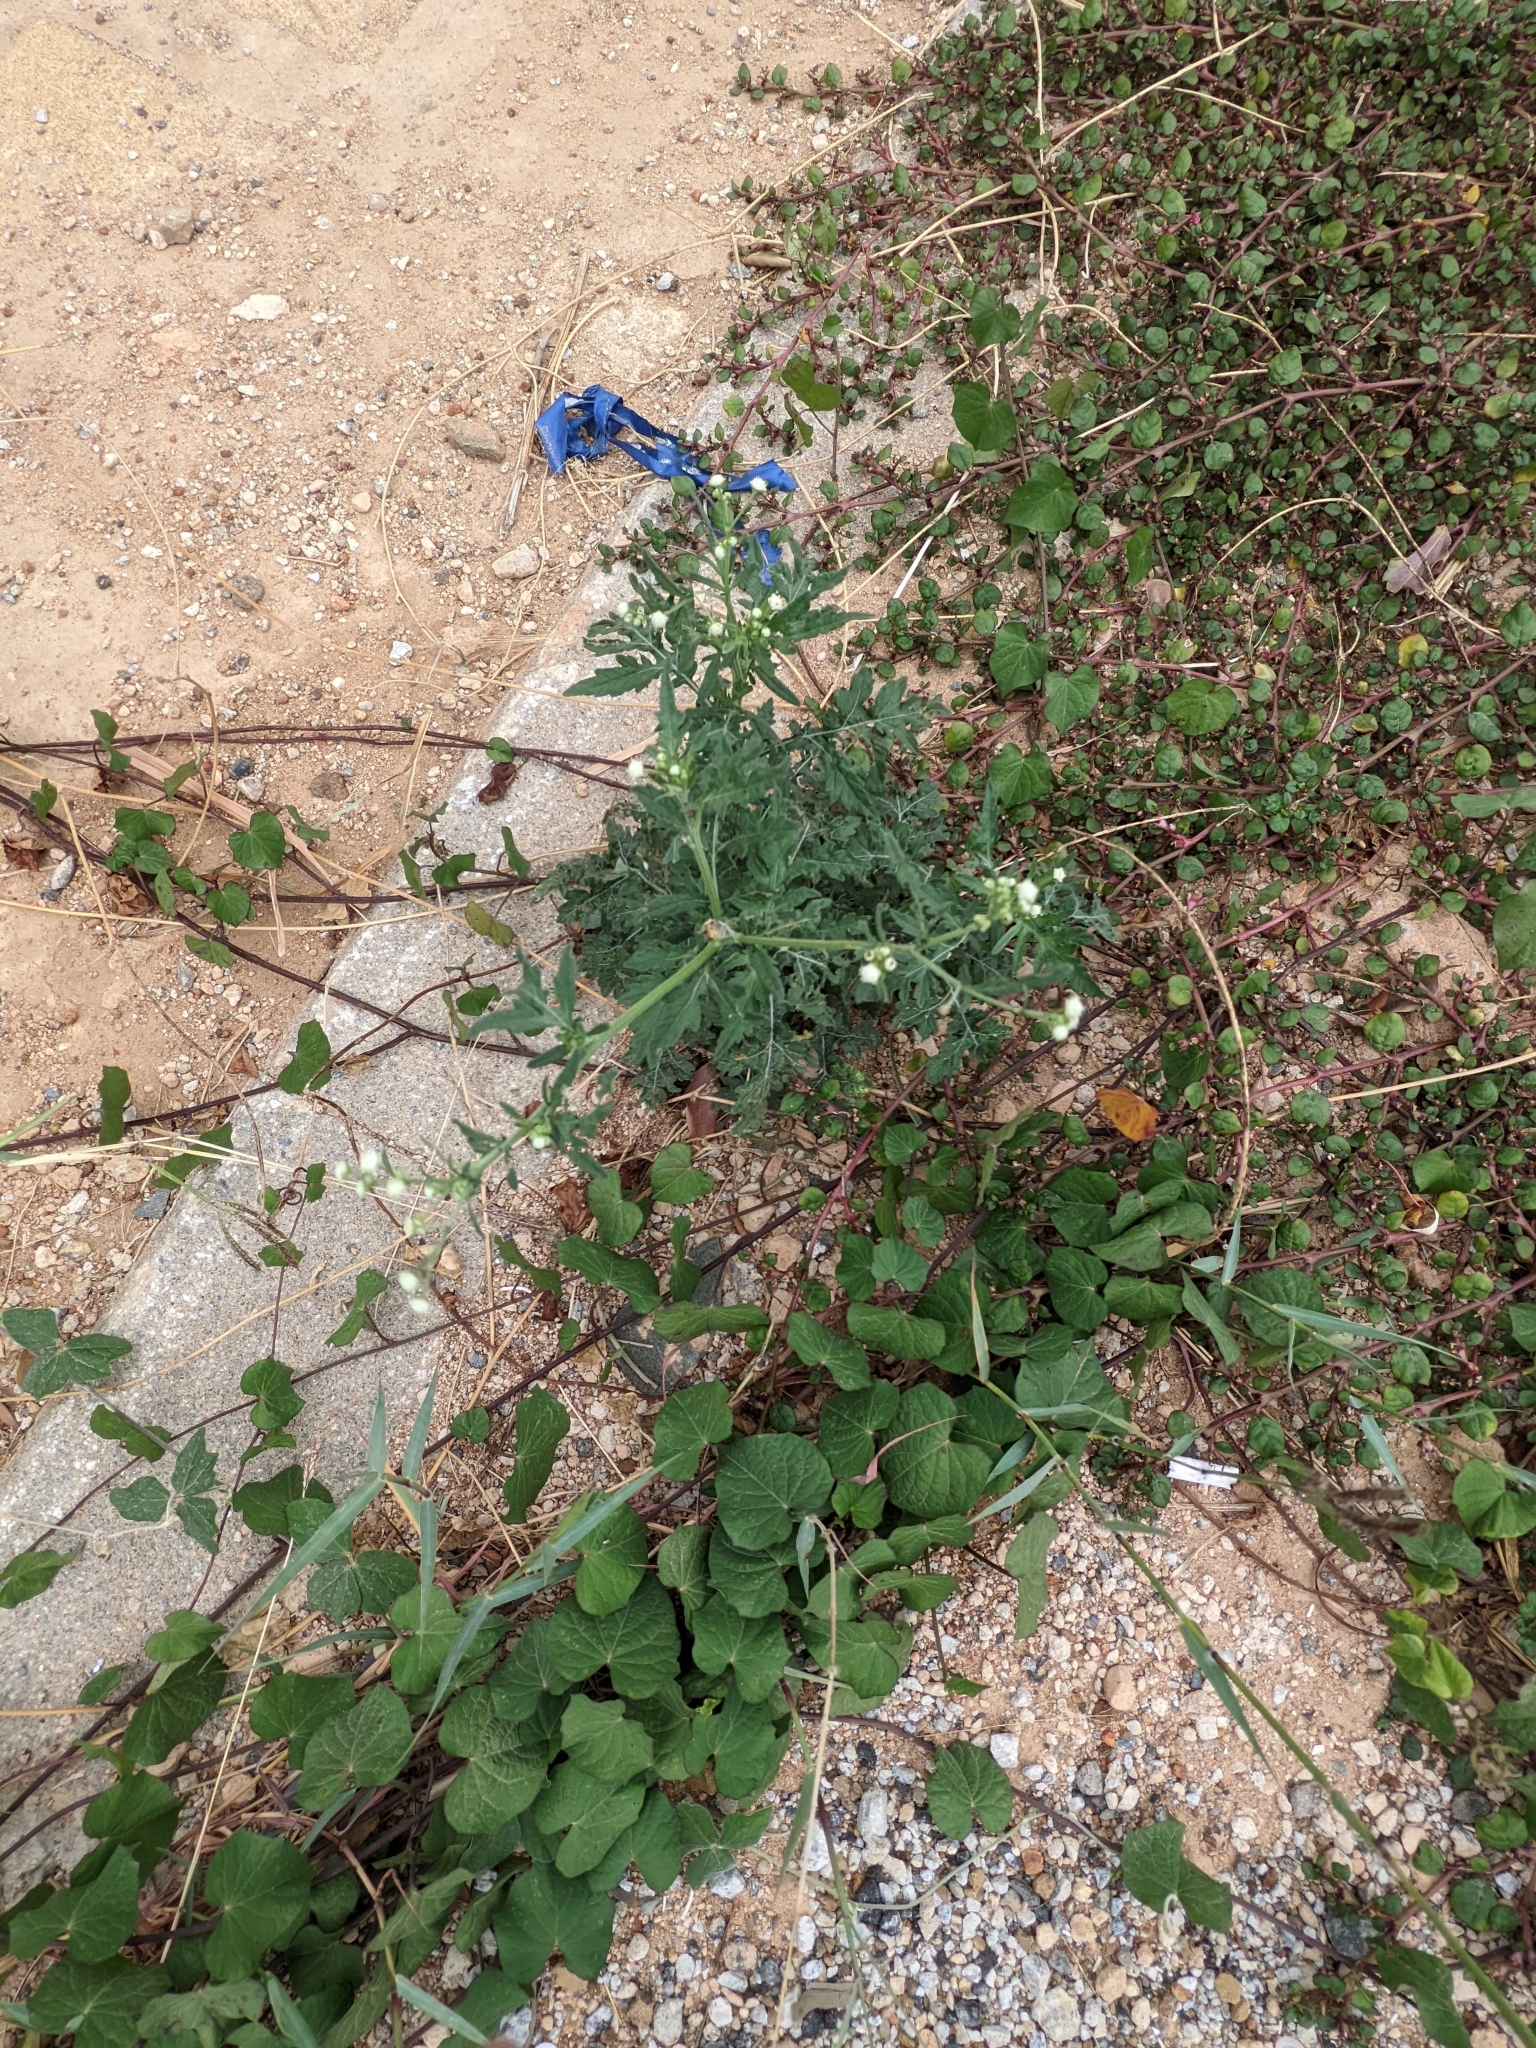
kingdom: Plantae
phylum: Tracheophyta
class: Magnoliopsida
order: Asterales
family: Asteraceae
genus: Parthenium
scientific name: Parthenium hysterophorus
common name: Santa maria feverfew
